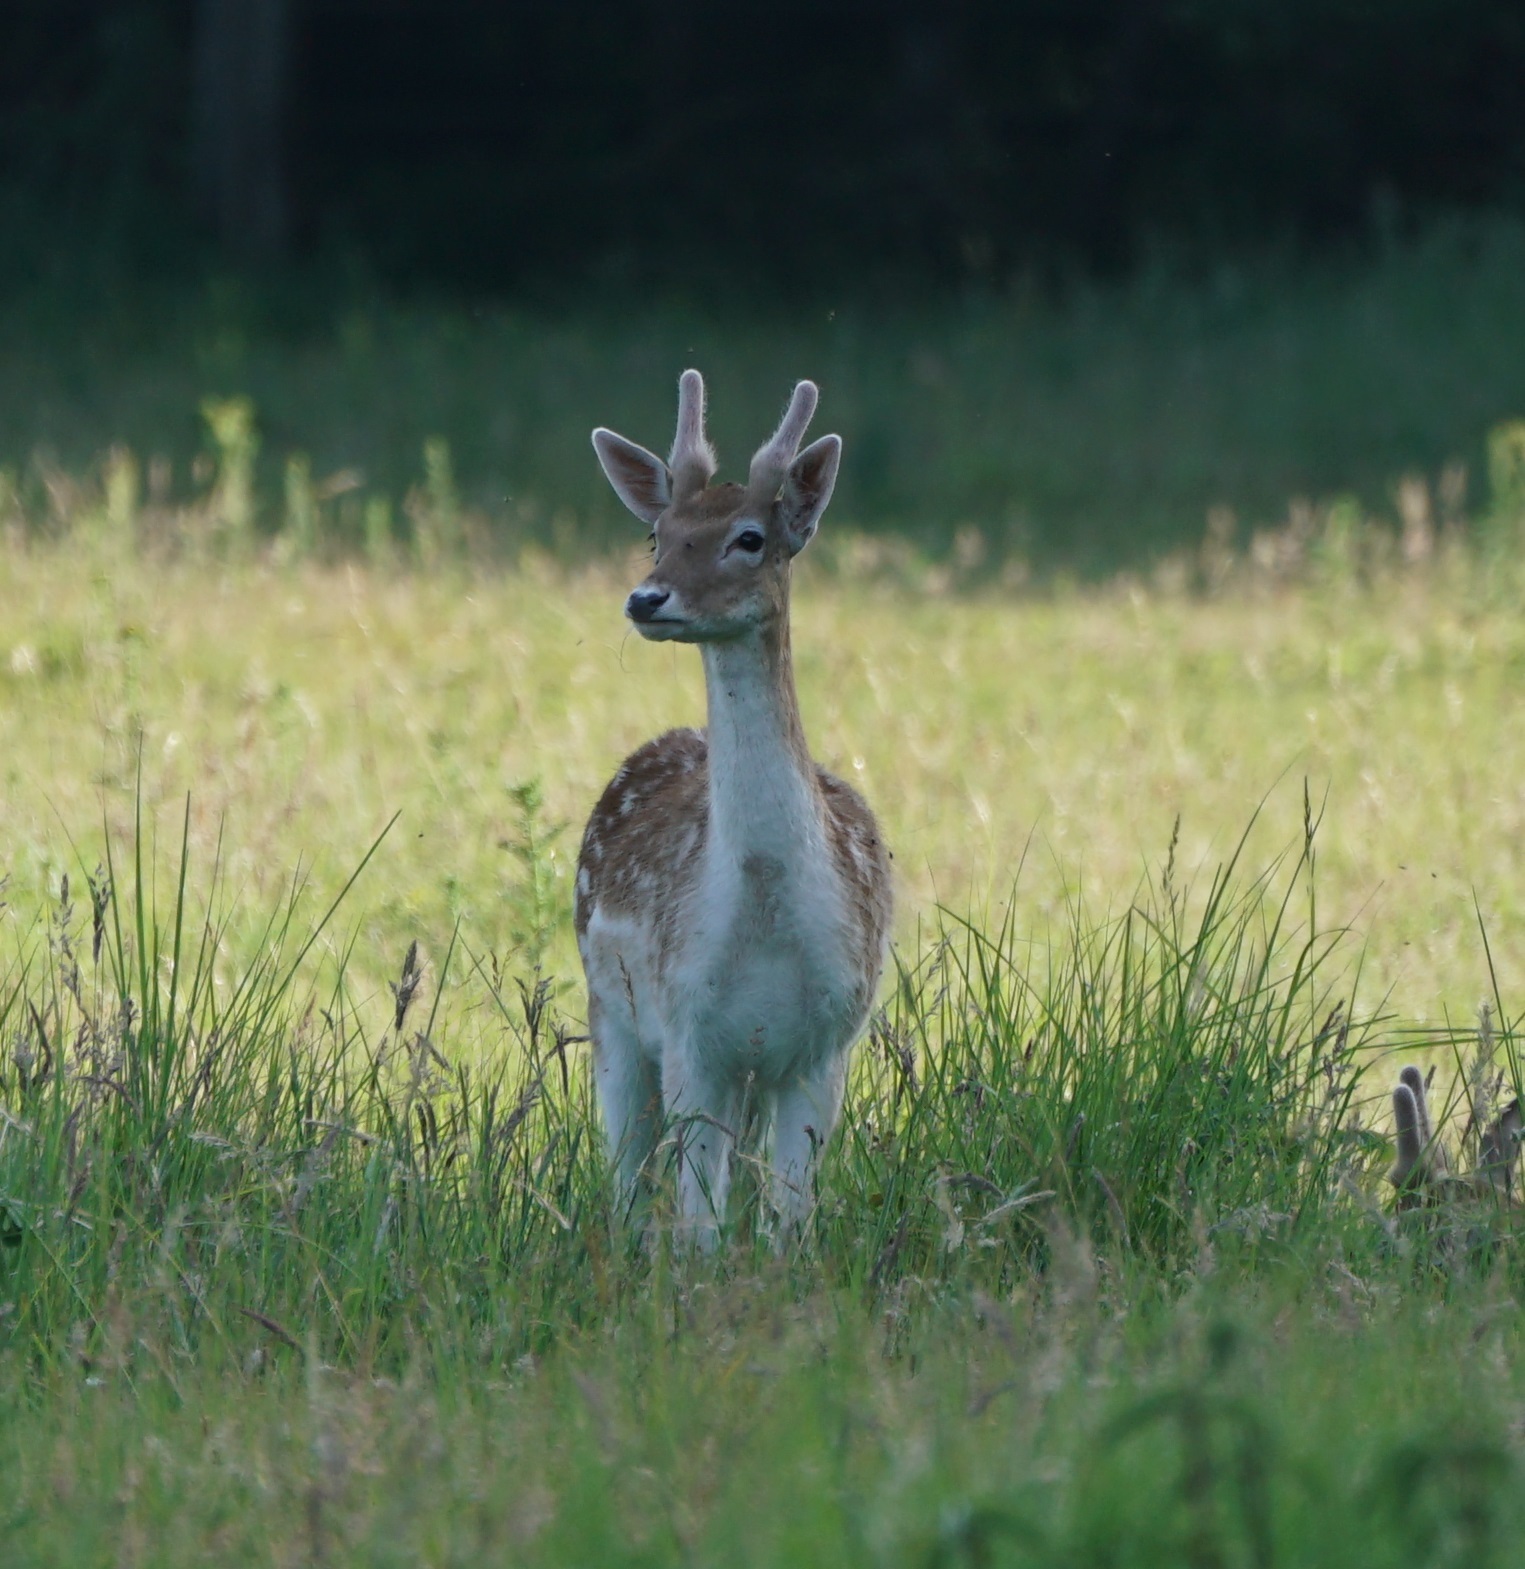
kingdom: Animalia
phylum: Chordata
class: Mammalia
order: Artiodactyla
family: Cervidae
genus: Dama
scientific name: Dama dama
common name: Fallow deer
